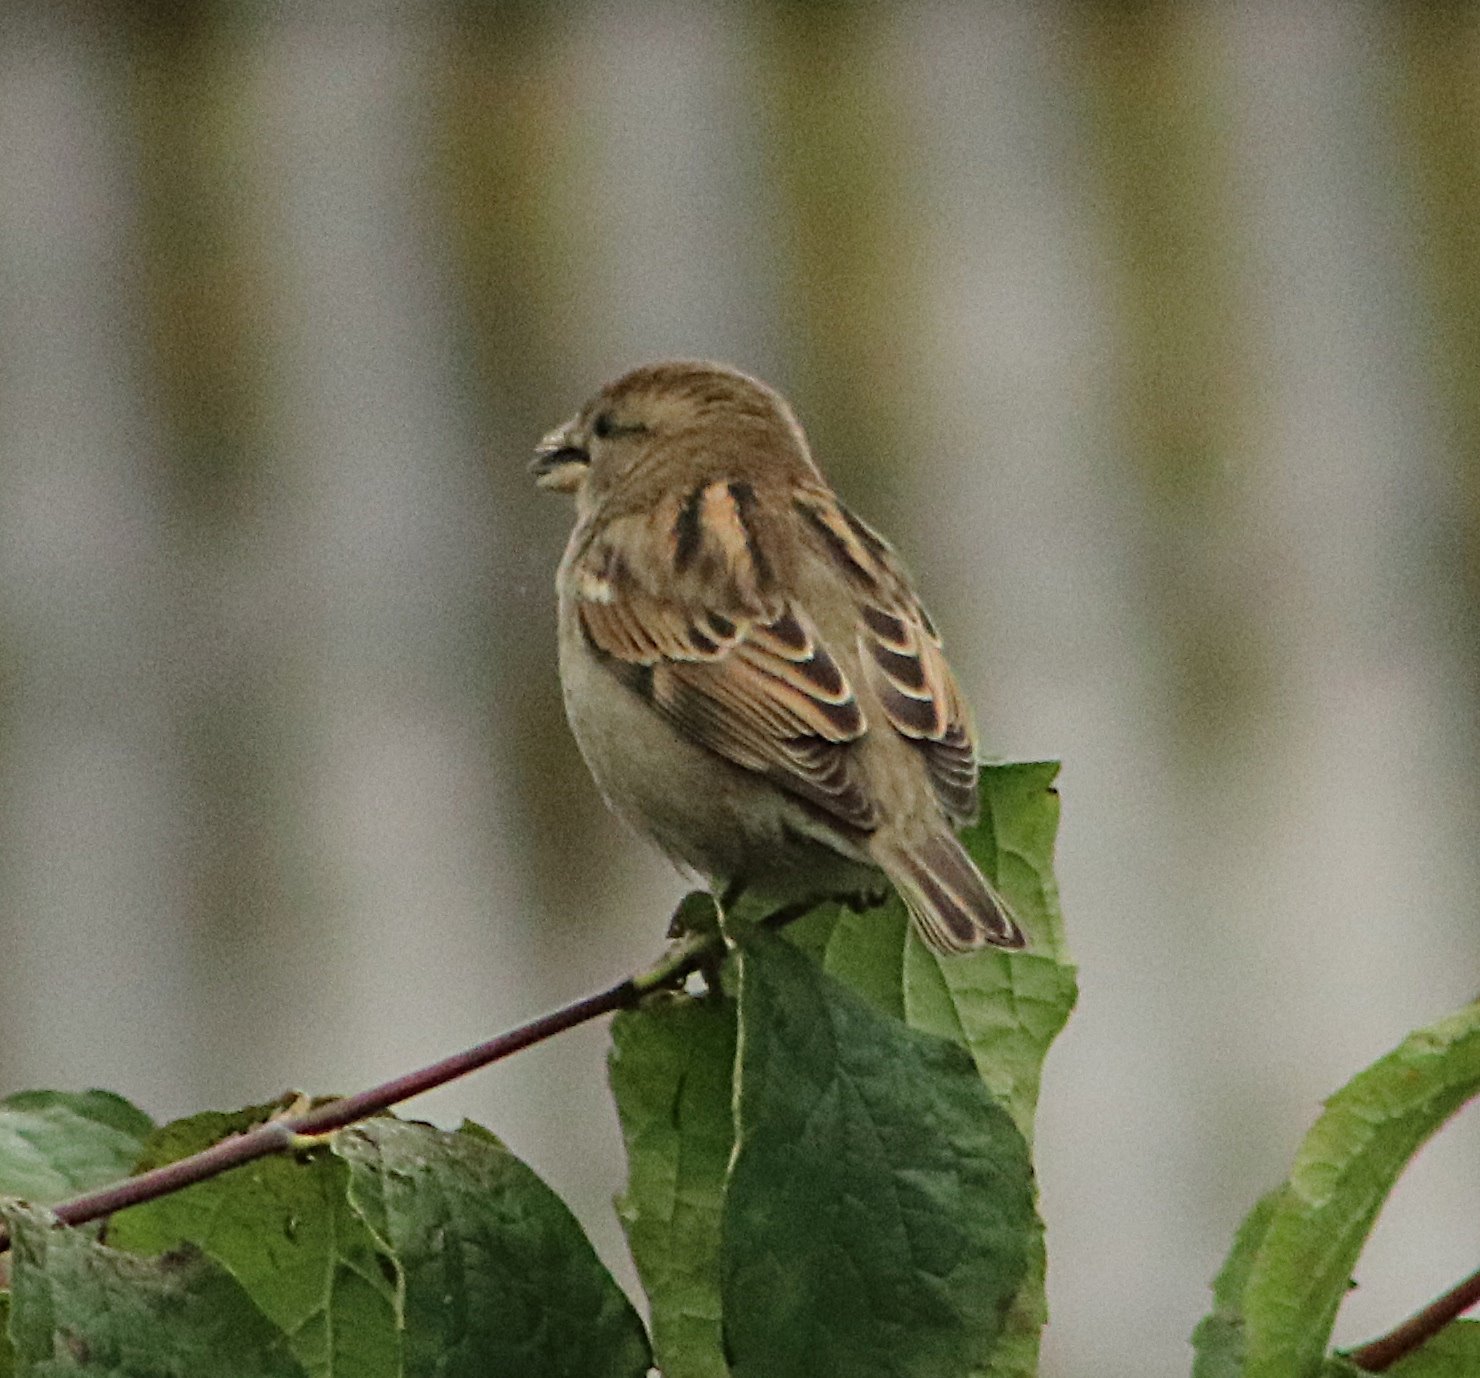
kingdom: Animalia
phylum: Chordata
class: Aves
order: Passeriformes
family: Passeridae
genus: Passer
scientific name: Passer domesticus
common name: House sparrow
